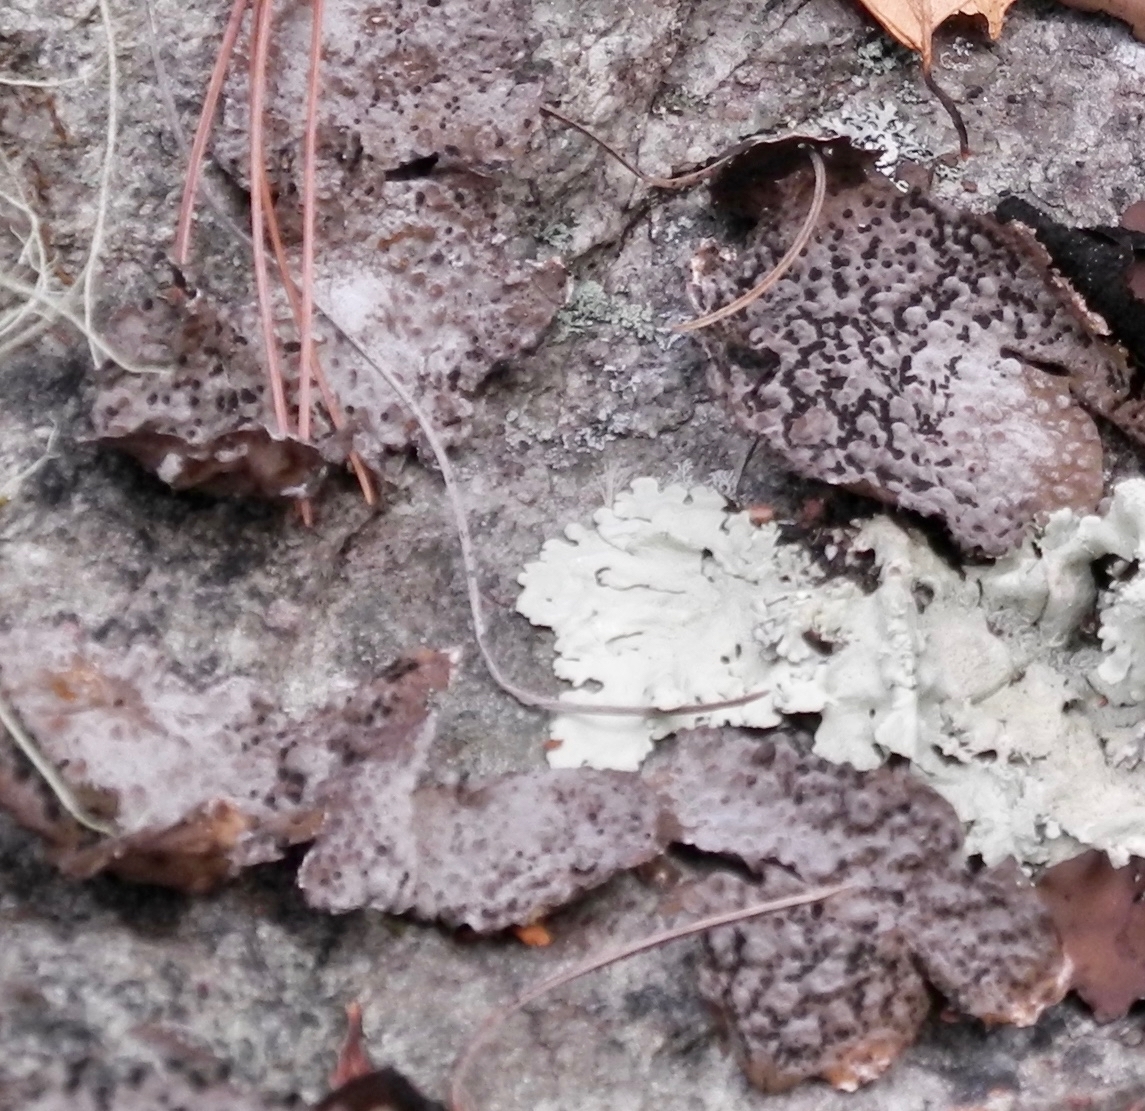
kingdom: Fungi
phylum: Ascomycota
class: Lecanoromycetes
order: Umbilicariales
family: Umbilicariaceae
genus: Lasallia
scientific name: Lasallia papulosa
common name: Common toadskin lichen
